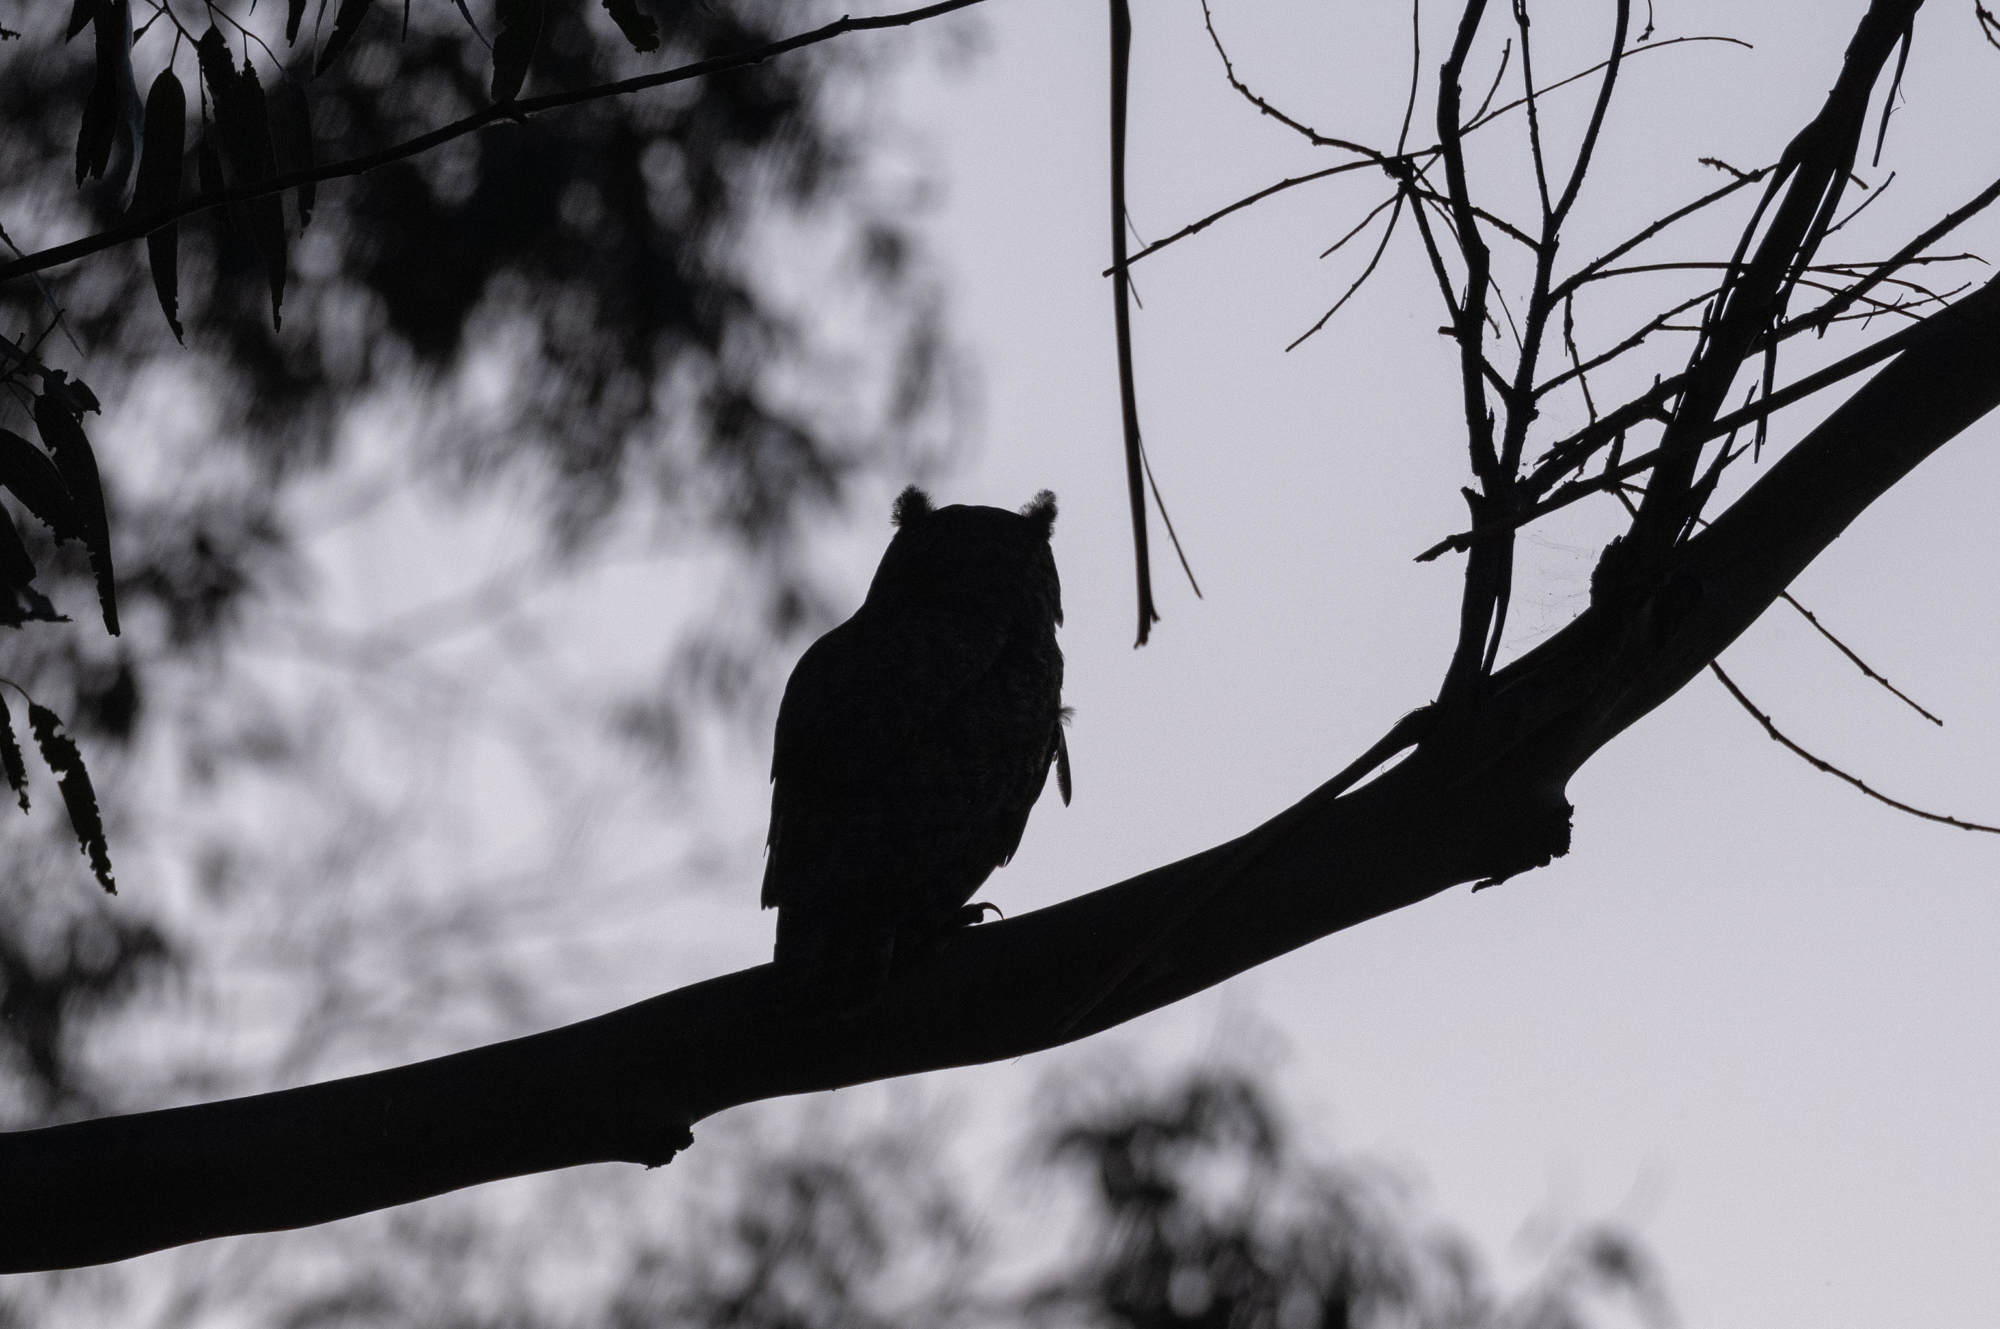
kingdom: Animalia
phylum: Chordata
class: Aves
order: Strigiformes
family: Strigidae
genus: Bubo
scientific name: Bubo virginianus
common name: Great horned owl
